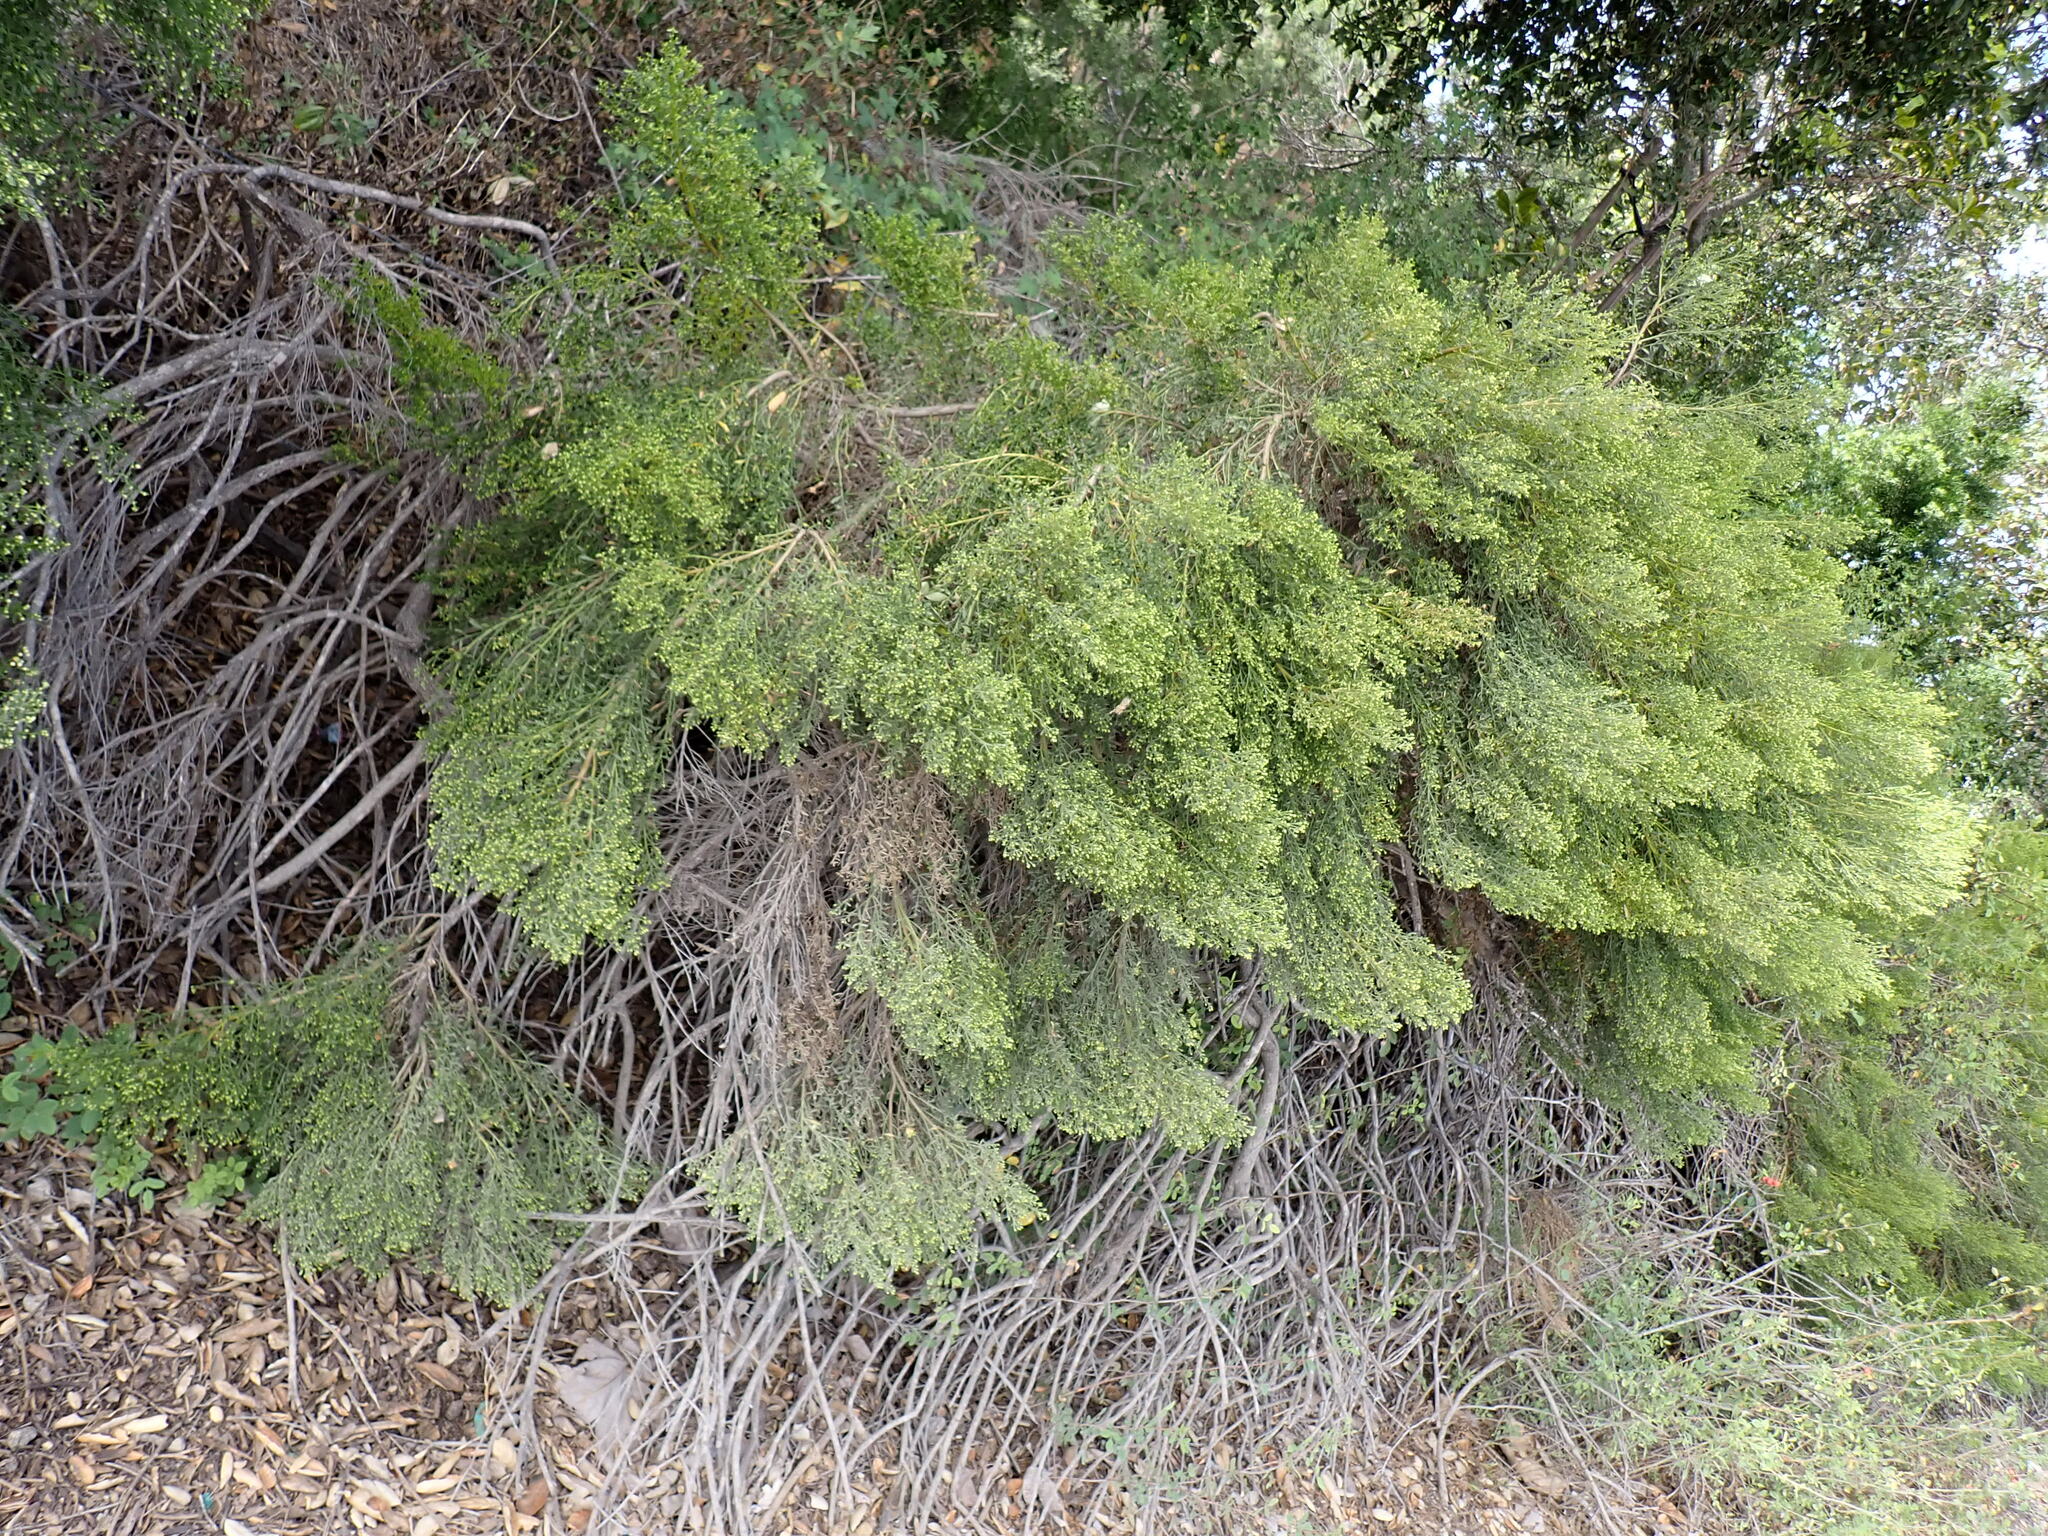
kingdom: Plantae
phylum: Tracheophyta
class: Magnoliopsida
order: Asterales
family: Asteraceae
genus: Baccharis
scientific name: Baccharis sarothroides
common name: Desert-broom
